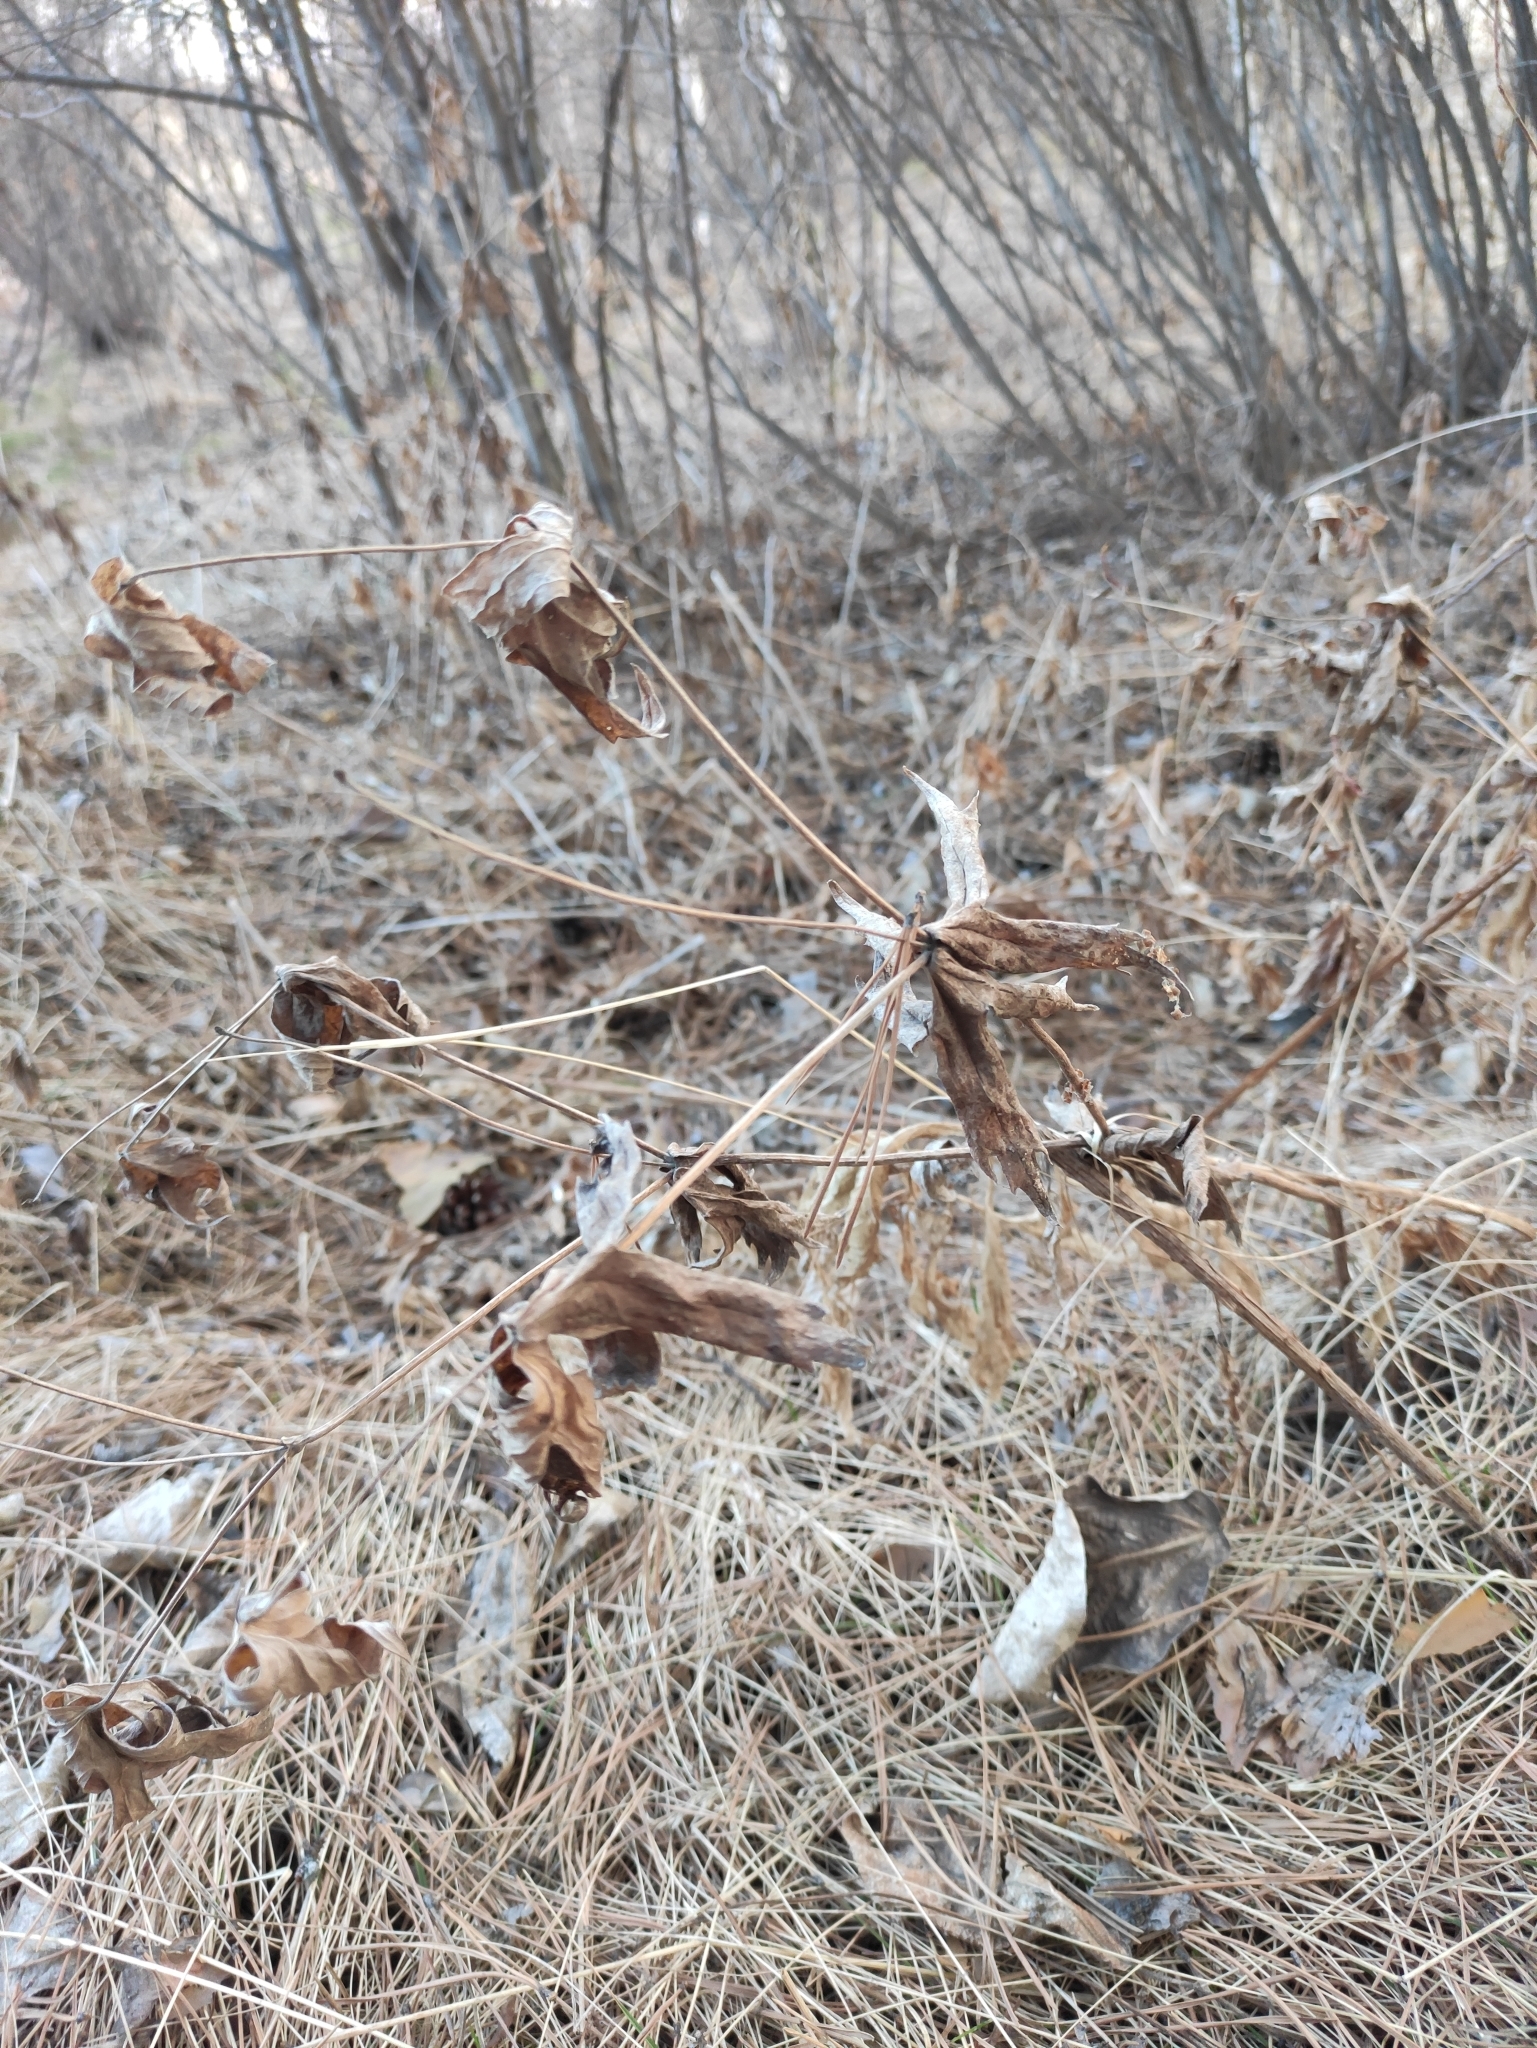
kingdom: Plantae
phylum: Tracheophyta
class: Magnoliopsida
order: Ranunculales
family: Ranunculaceae
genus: Anemonastrum
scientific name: Anemonastrum dichotomum
